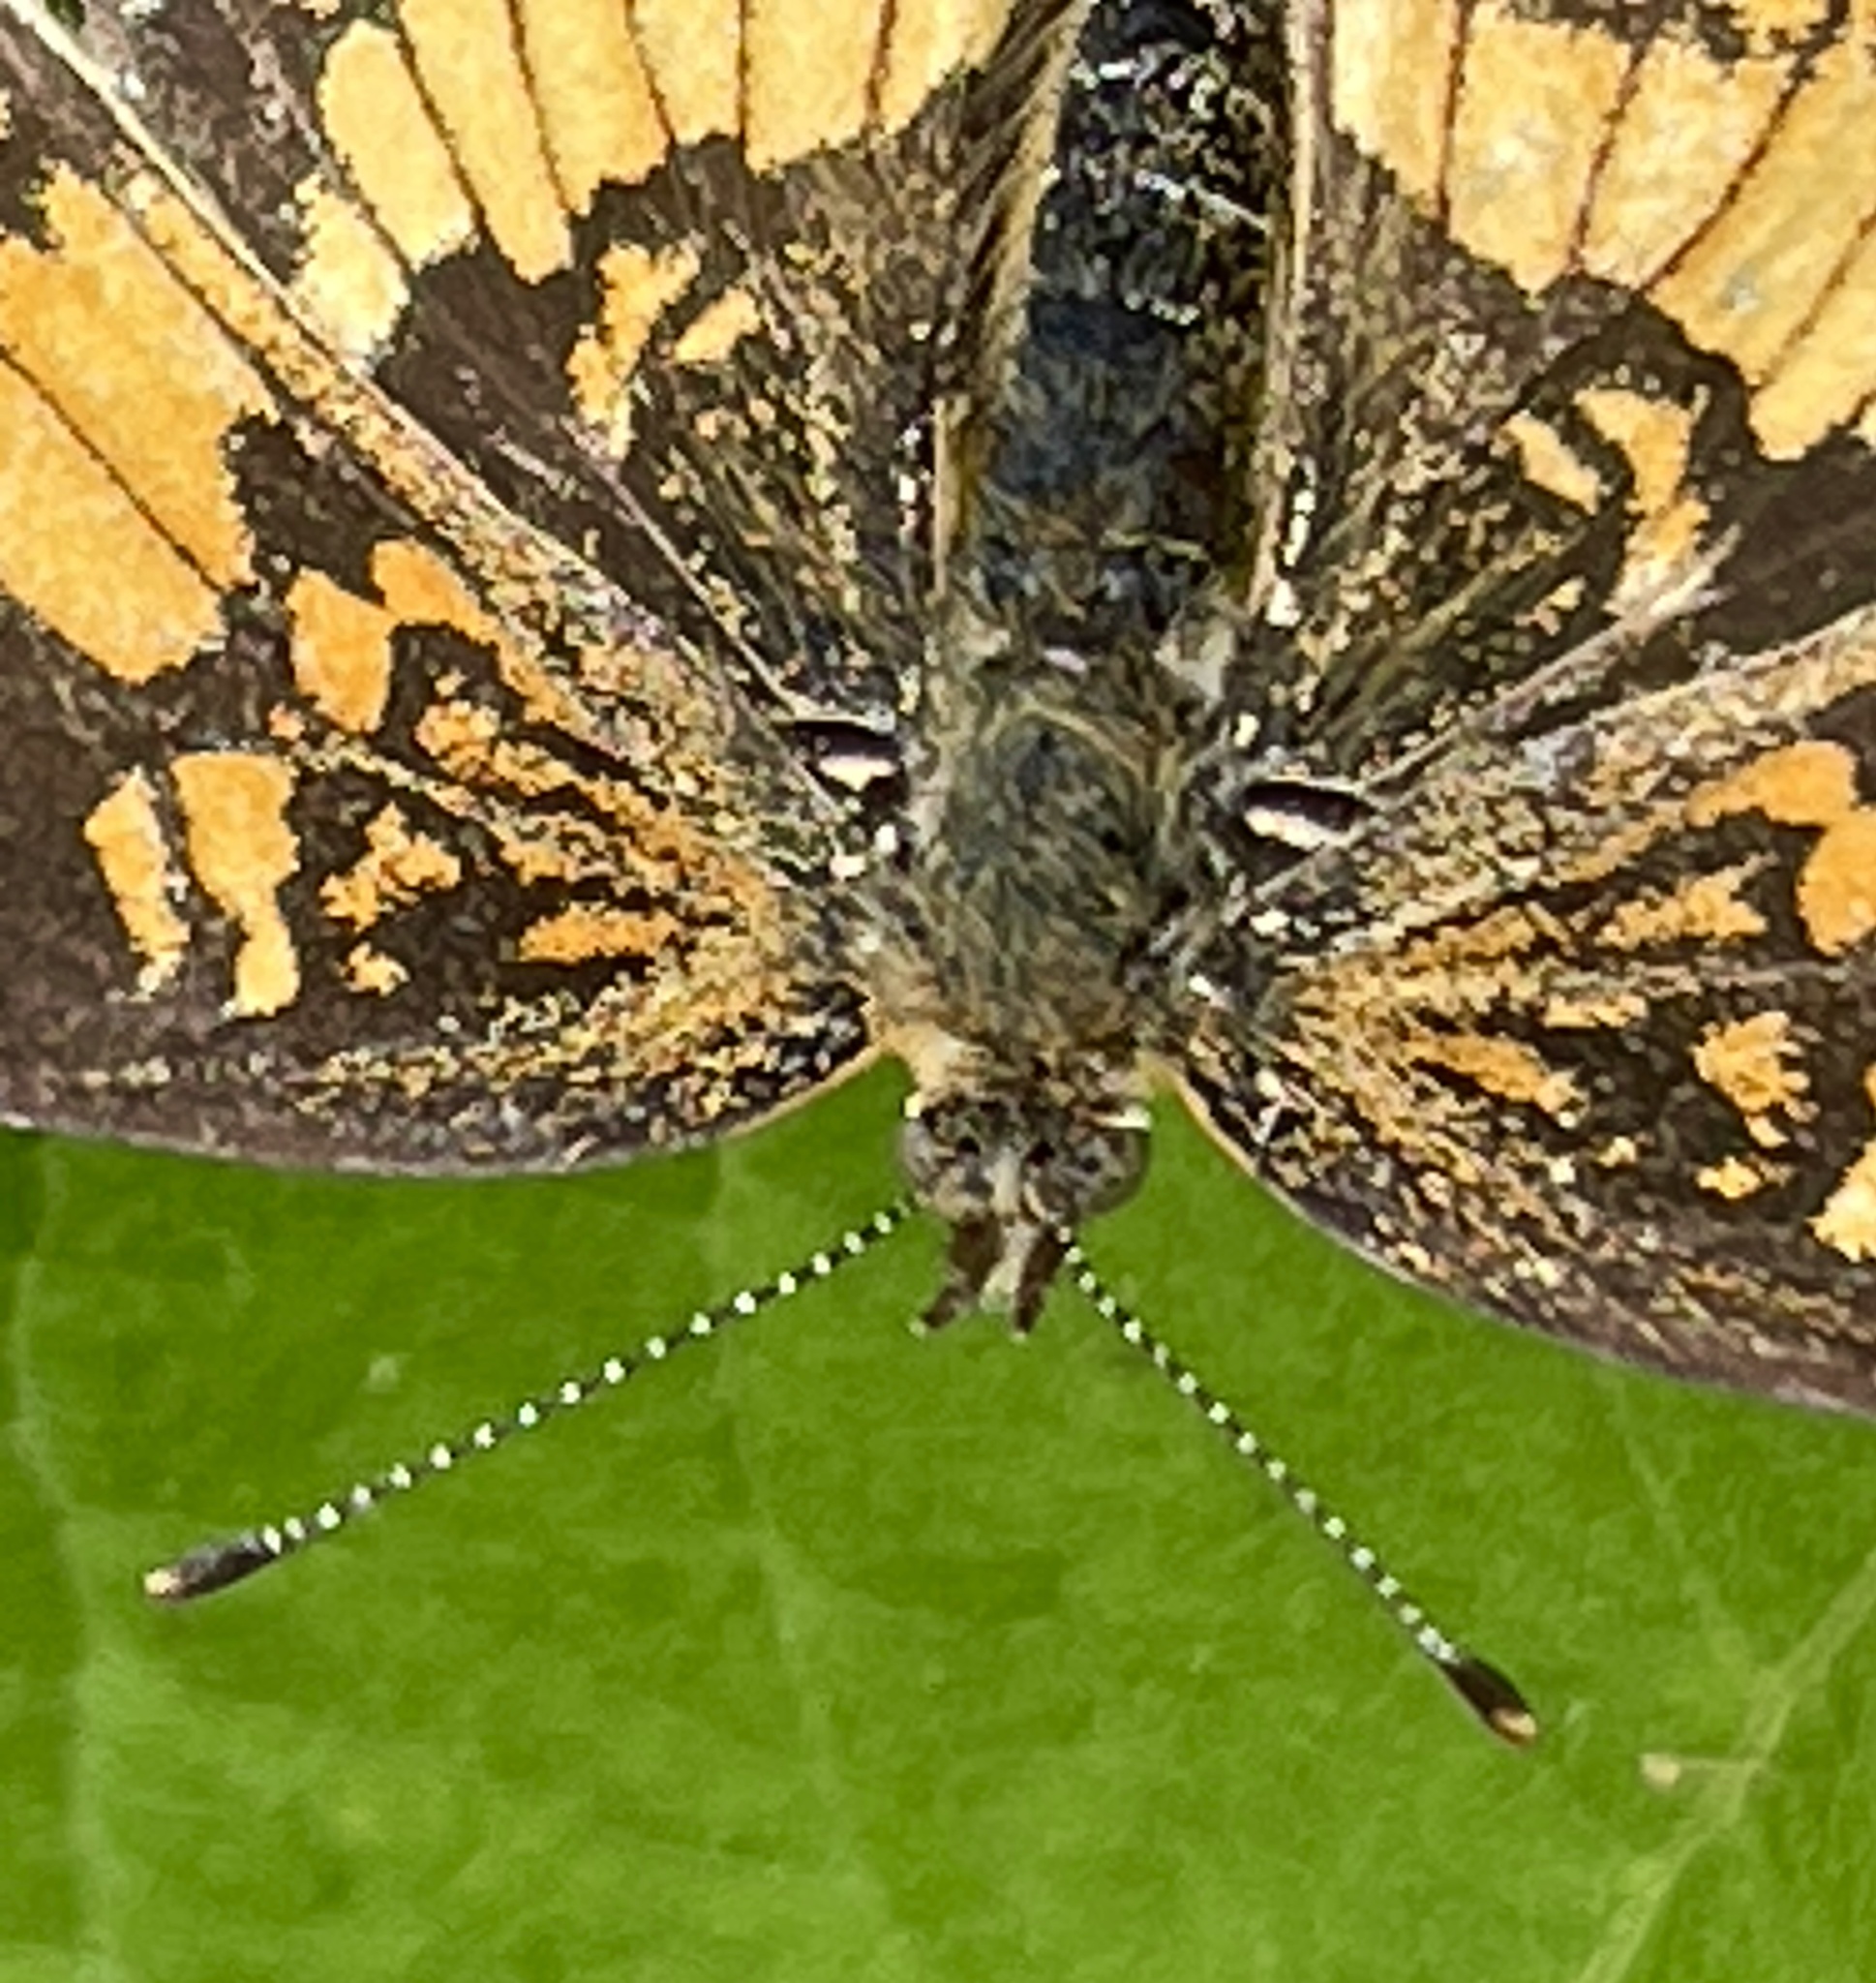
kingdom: Animalia
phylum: Arthropoda
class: Insecta
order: Lepidoptera
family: Nymphalidae
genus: Chlosyne
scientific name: Chlosyne nycteis
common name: Silvery checkerspot
